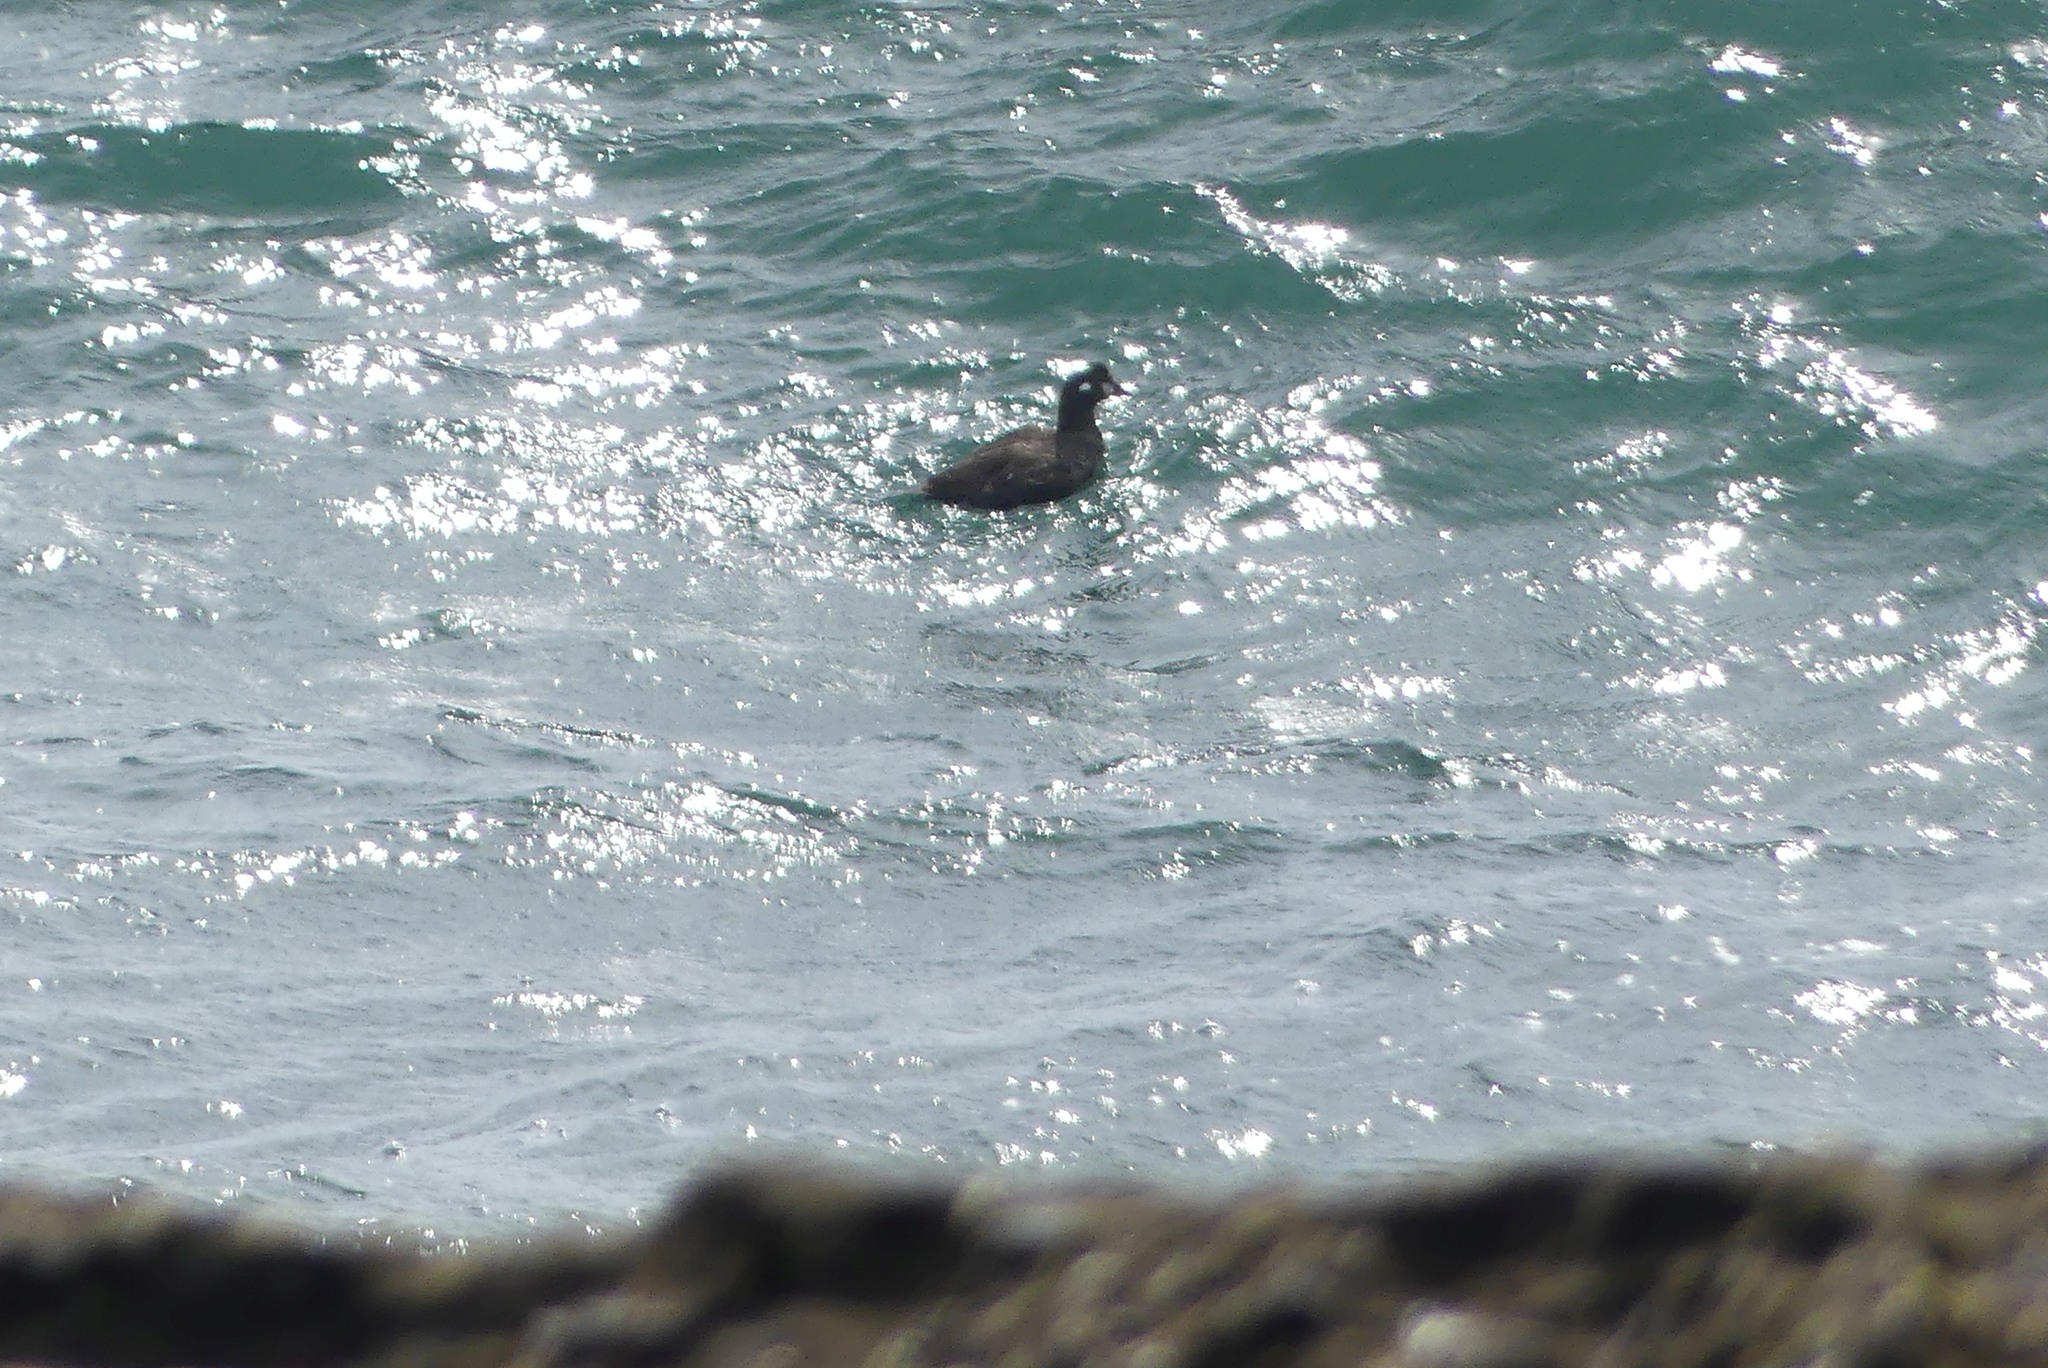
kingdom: Animalia
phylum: Chordata
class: Aves
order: Anseriformes
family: Anatidae
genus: Histrionicus
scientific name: Histrionicus histrionicus
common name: Harlequin duck
